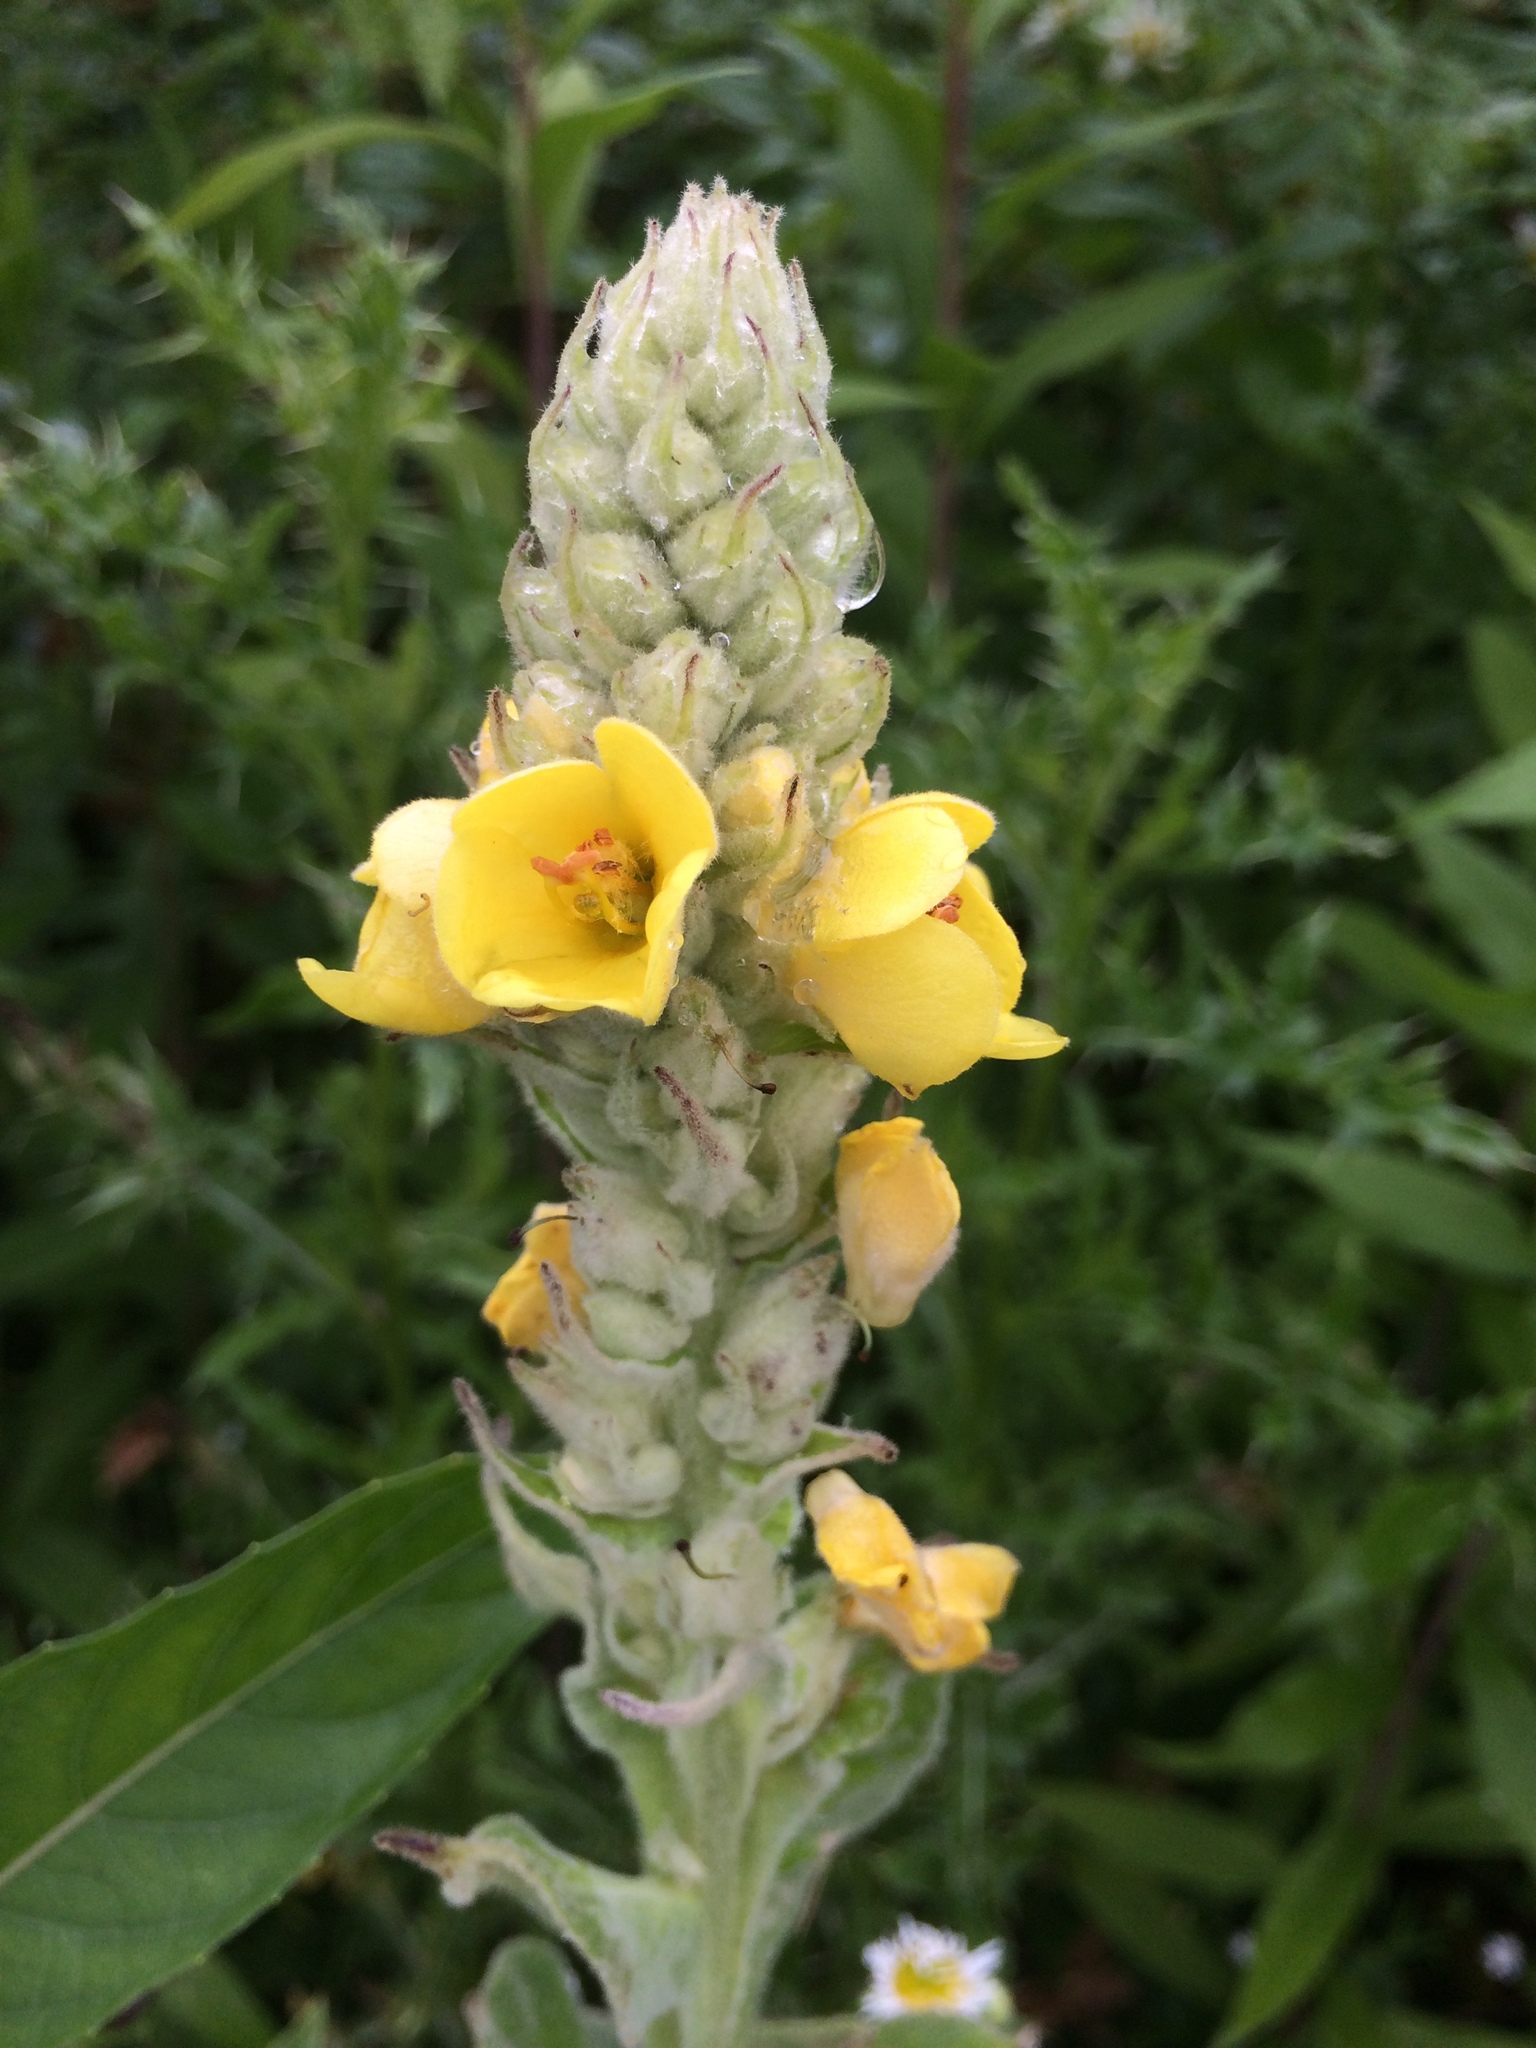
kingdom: Plantae
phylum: Tracheophyta
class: Magnoliopsida
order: Lamiales
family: Scrophulariaceae
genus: Verbascum
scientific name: Verbascum thapsus
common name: Common mullein
